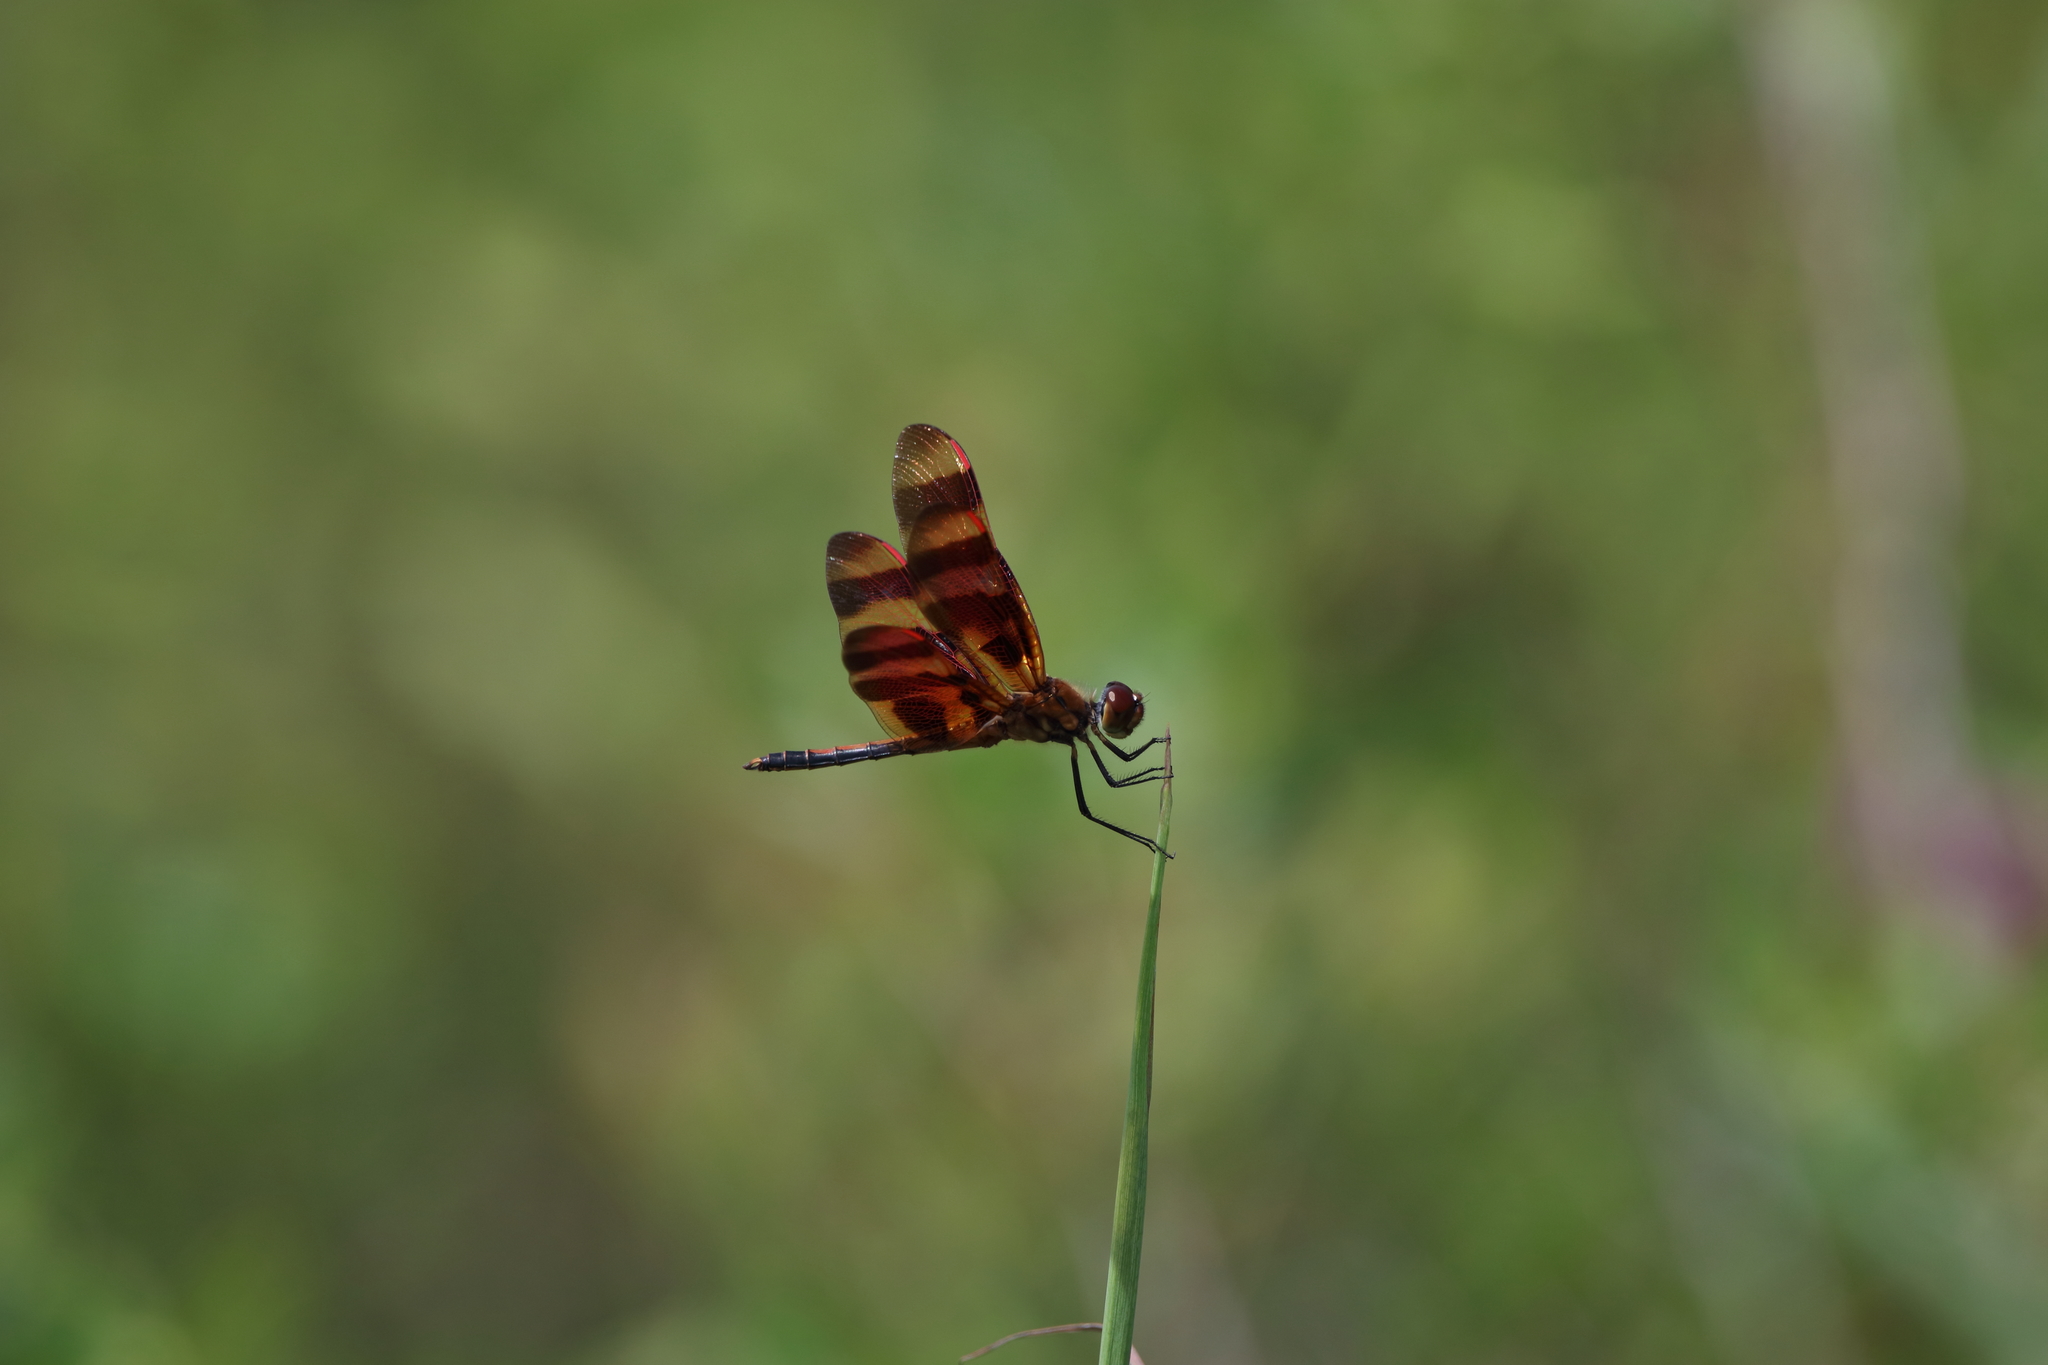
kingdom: Animalia
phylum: Arthropoda
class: Insecta
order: Odonata
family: Libellulidae
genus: Celithemis
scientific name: Celithemis eponina
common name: Halloween pennant
